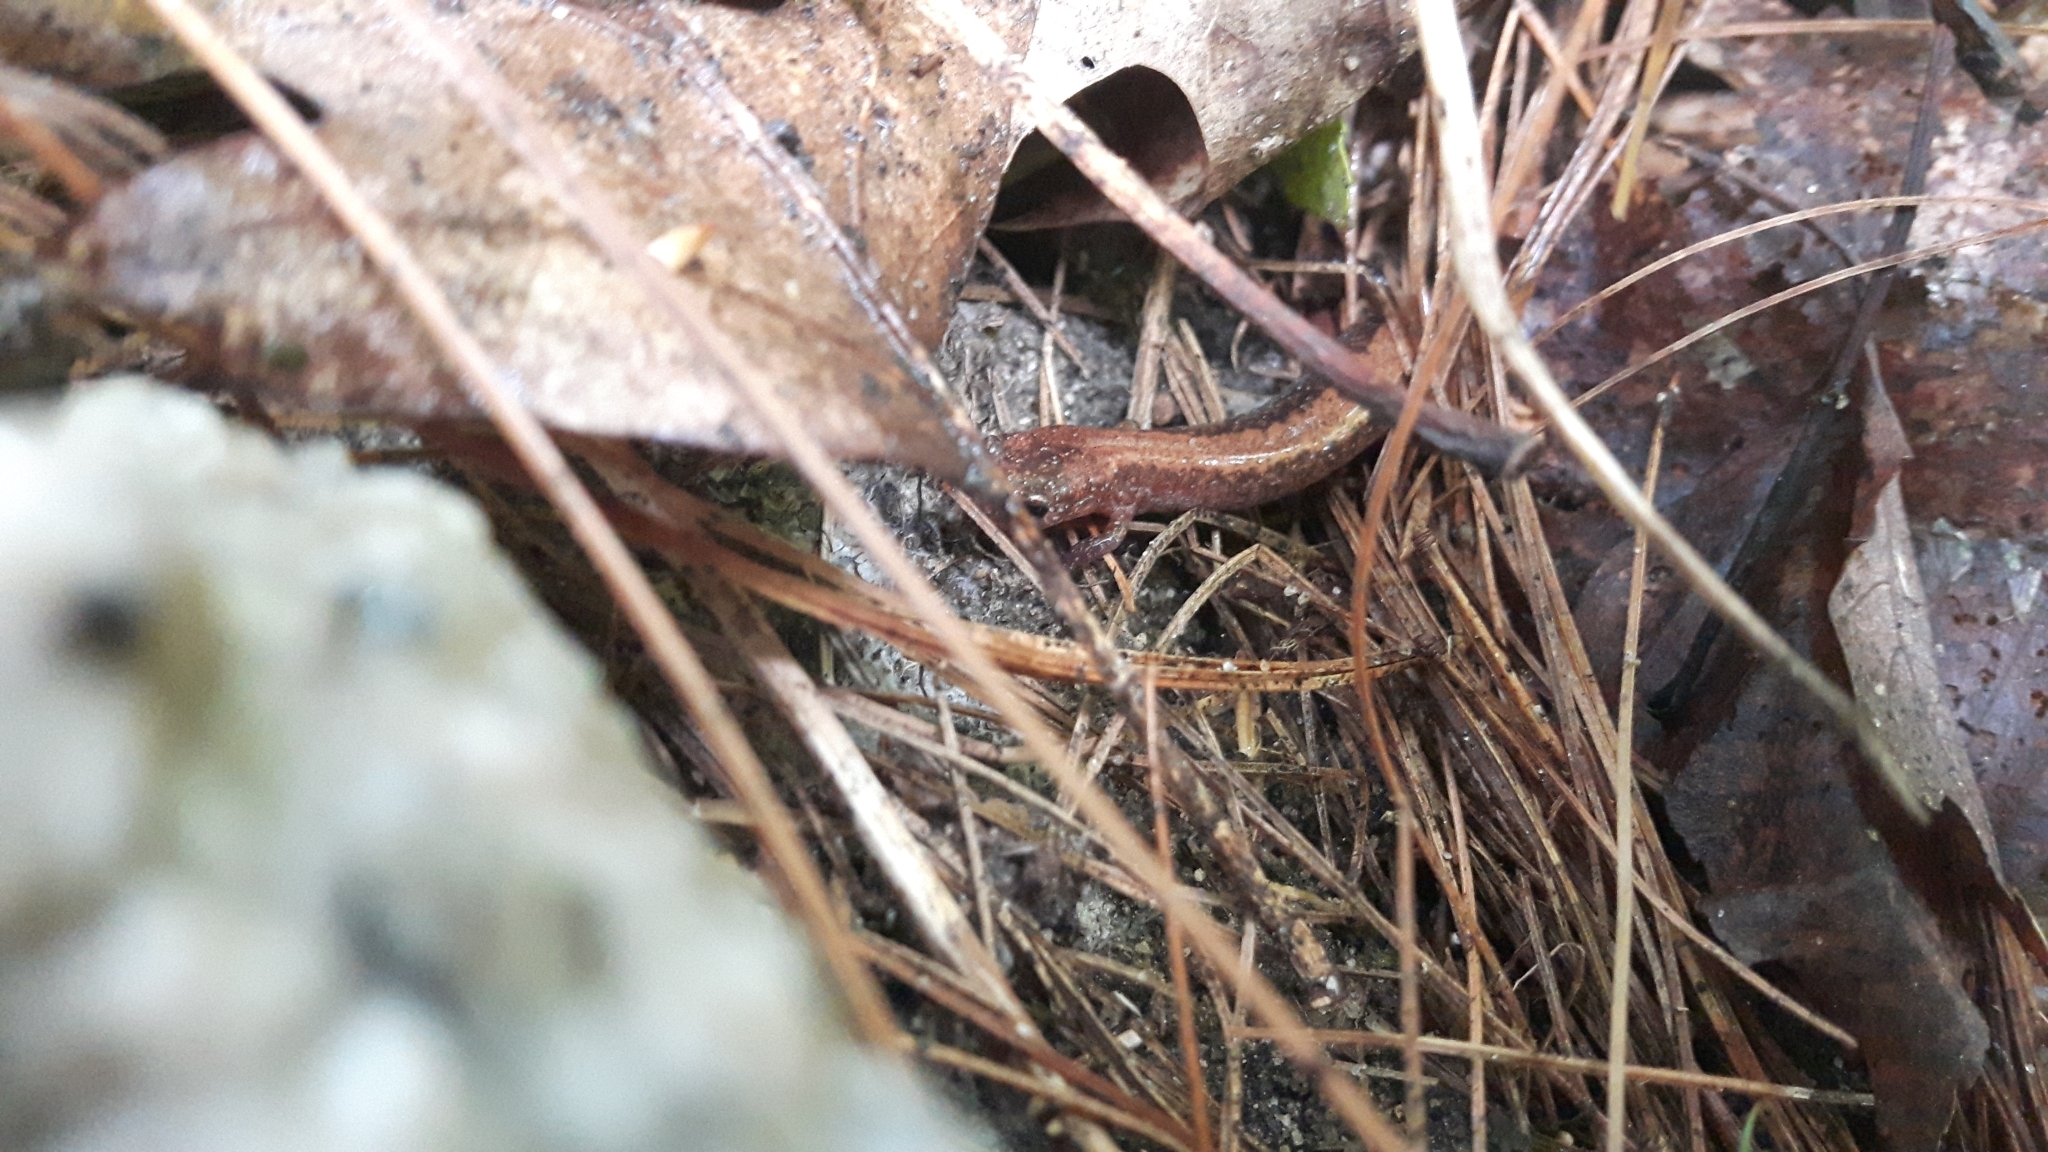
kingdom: Animalia
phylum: Chordata
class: Amphibia
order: Caudata
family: Plethodontidae
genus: Plethodon
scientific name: Plethodon cinereus
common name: Redback salamander
